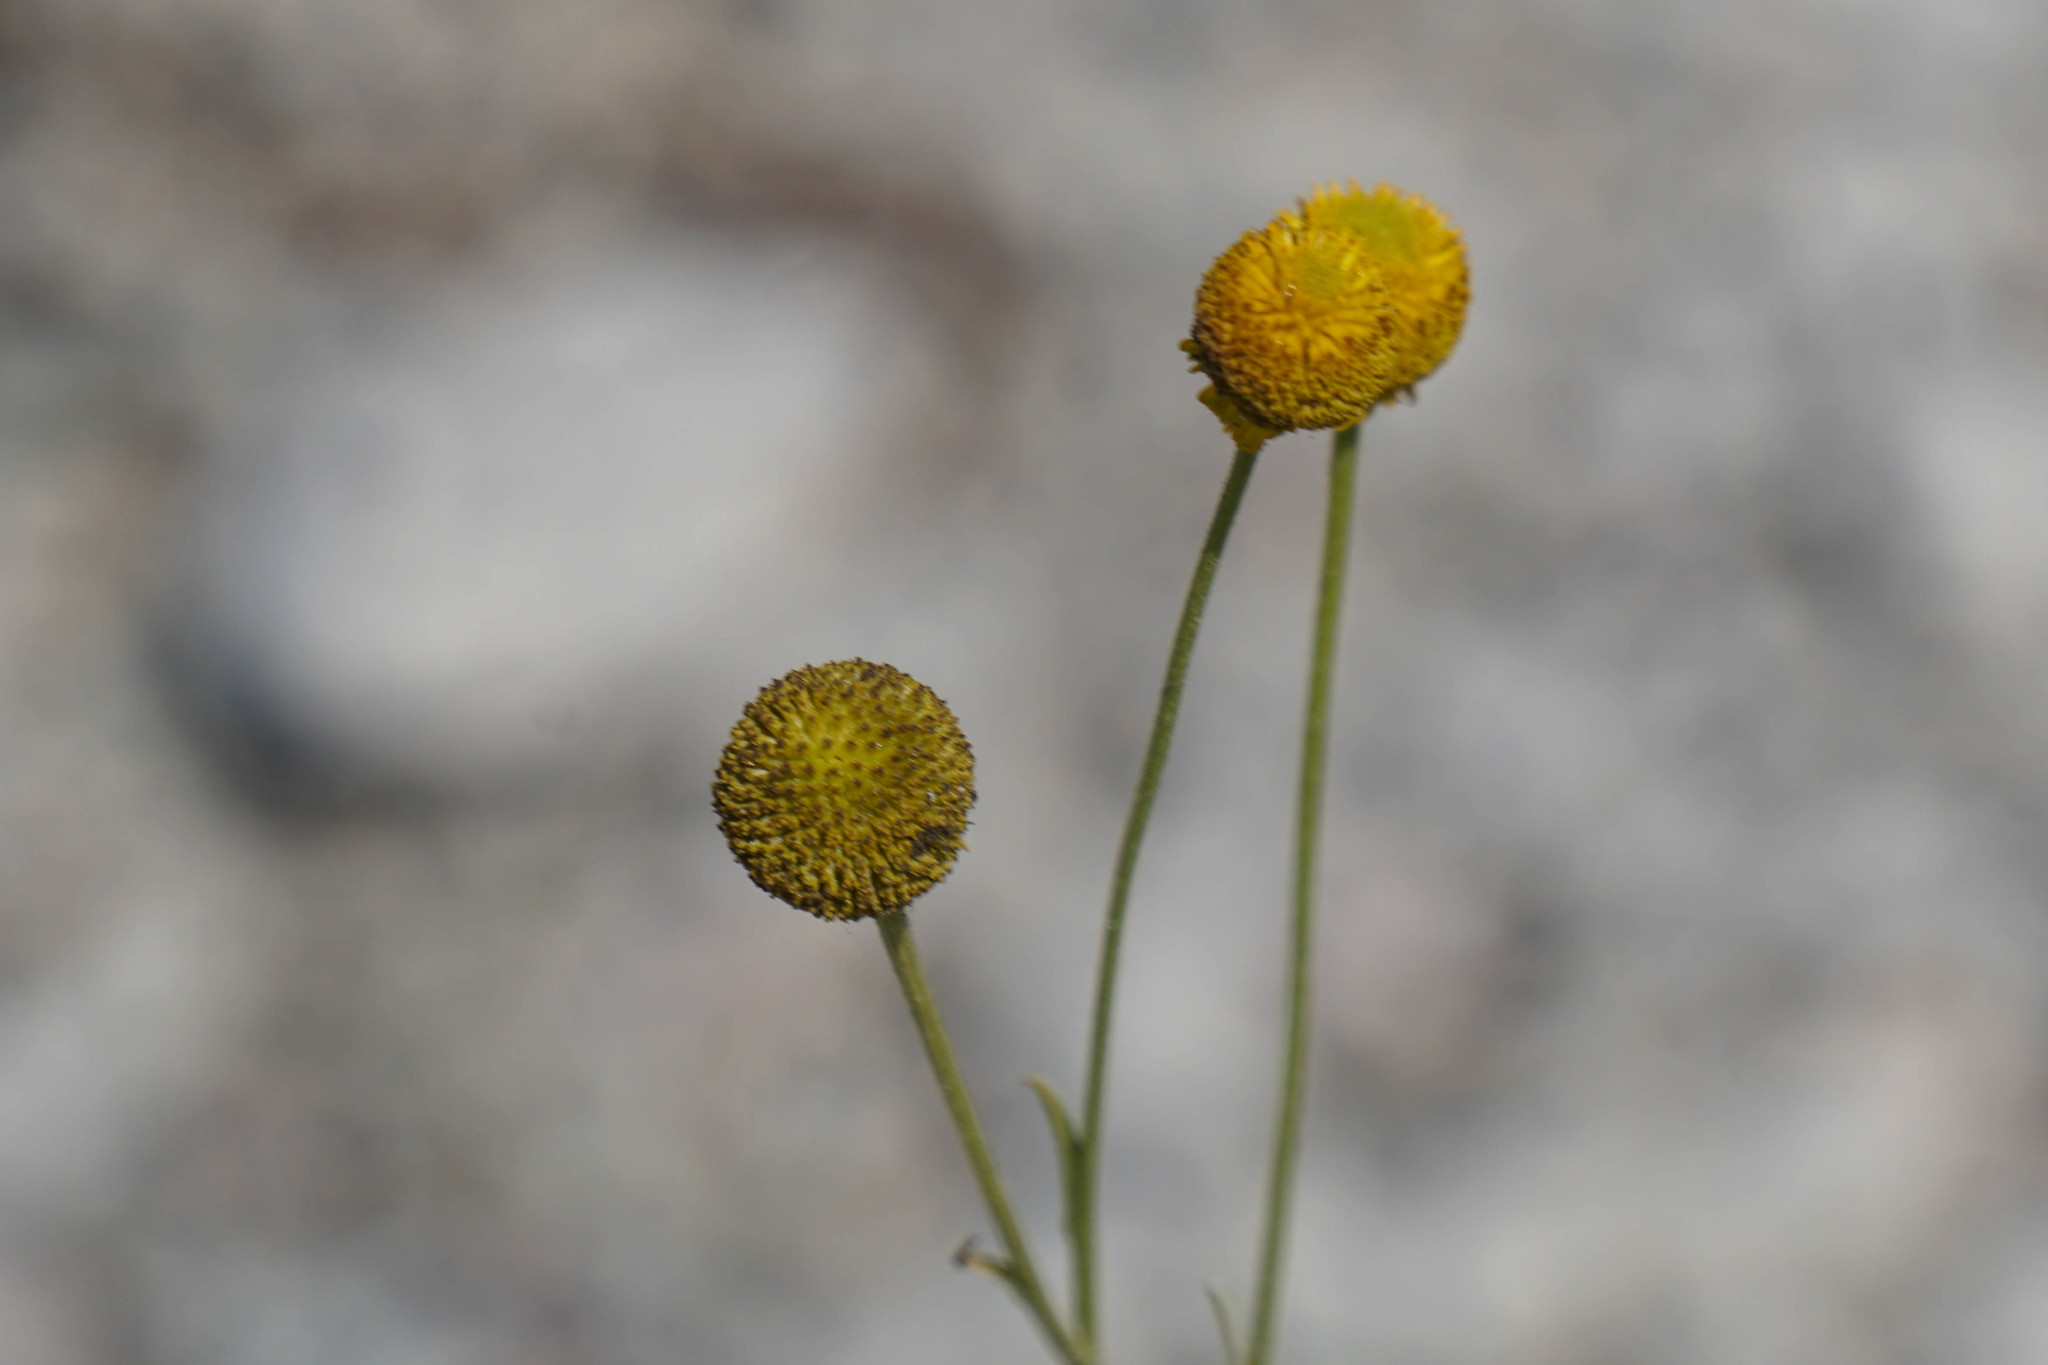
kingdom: Plantae
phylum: Tracheophyta
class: Magnoliopsida
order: Asterales
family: Asteraceae
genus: Helenium
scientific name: Helenium puberulum
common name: Sneezewort
